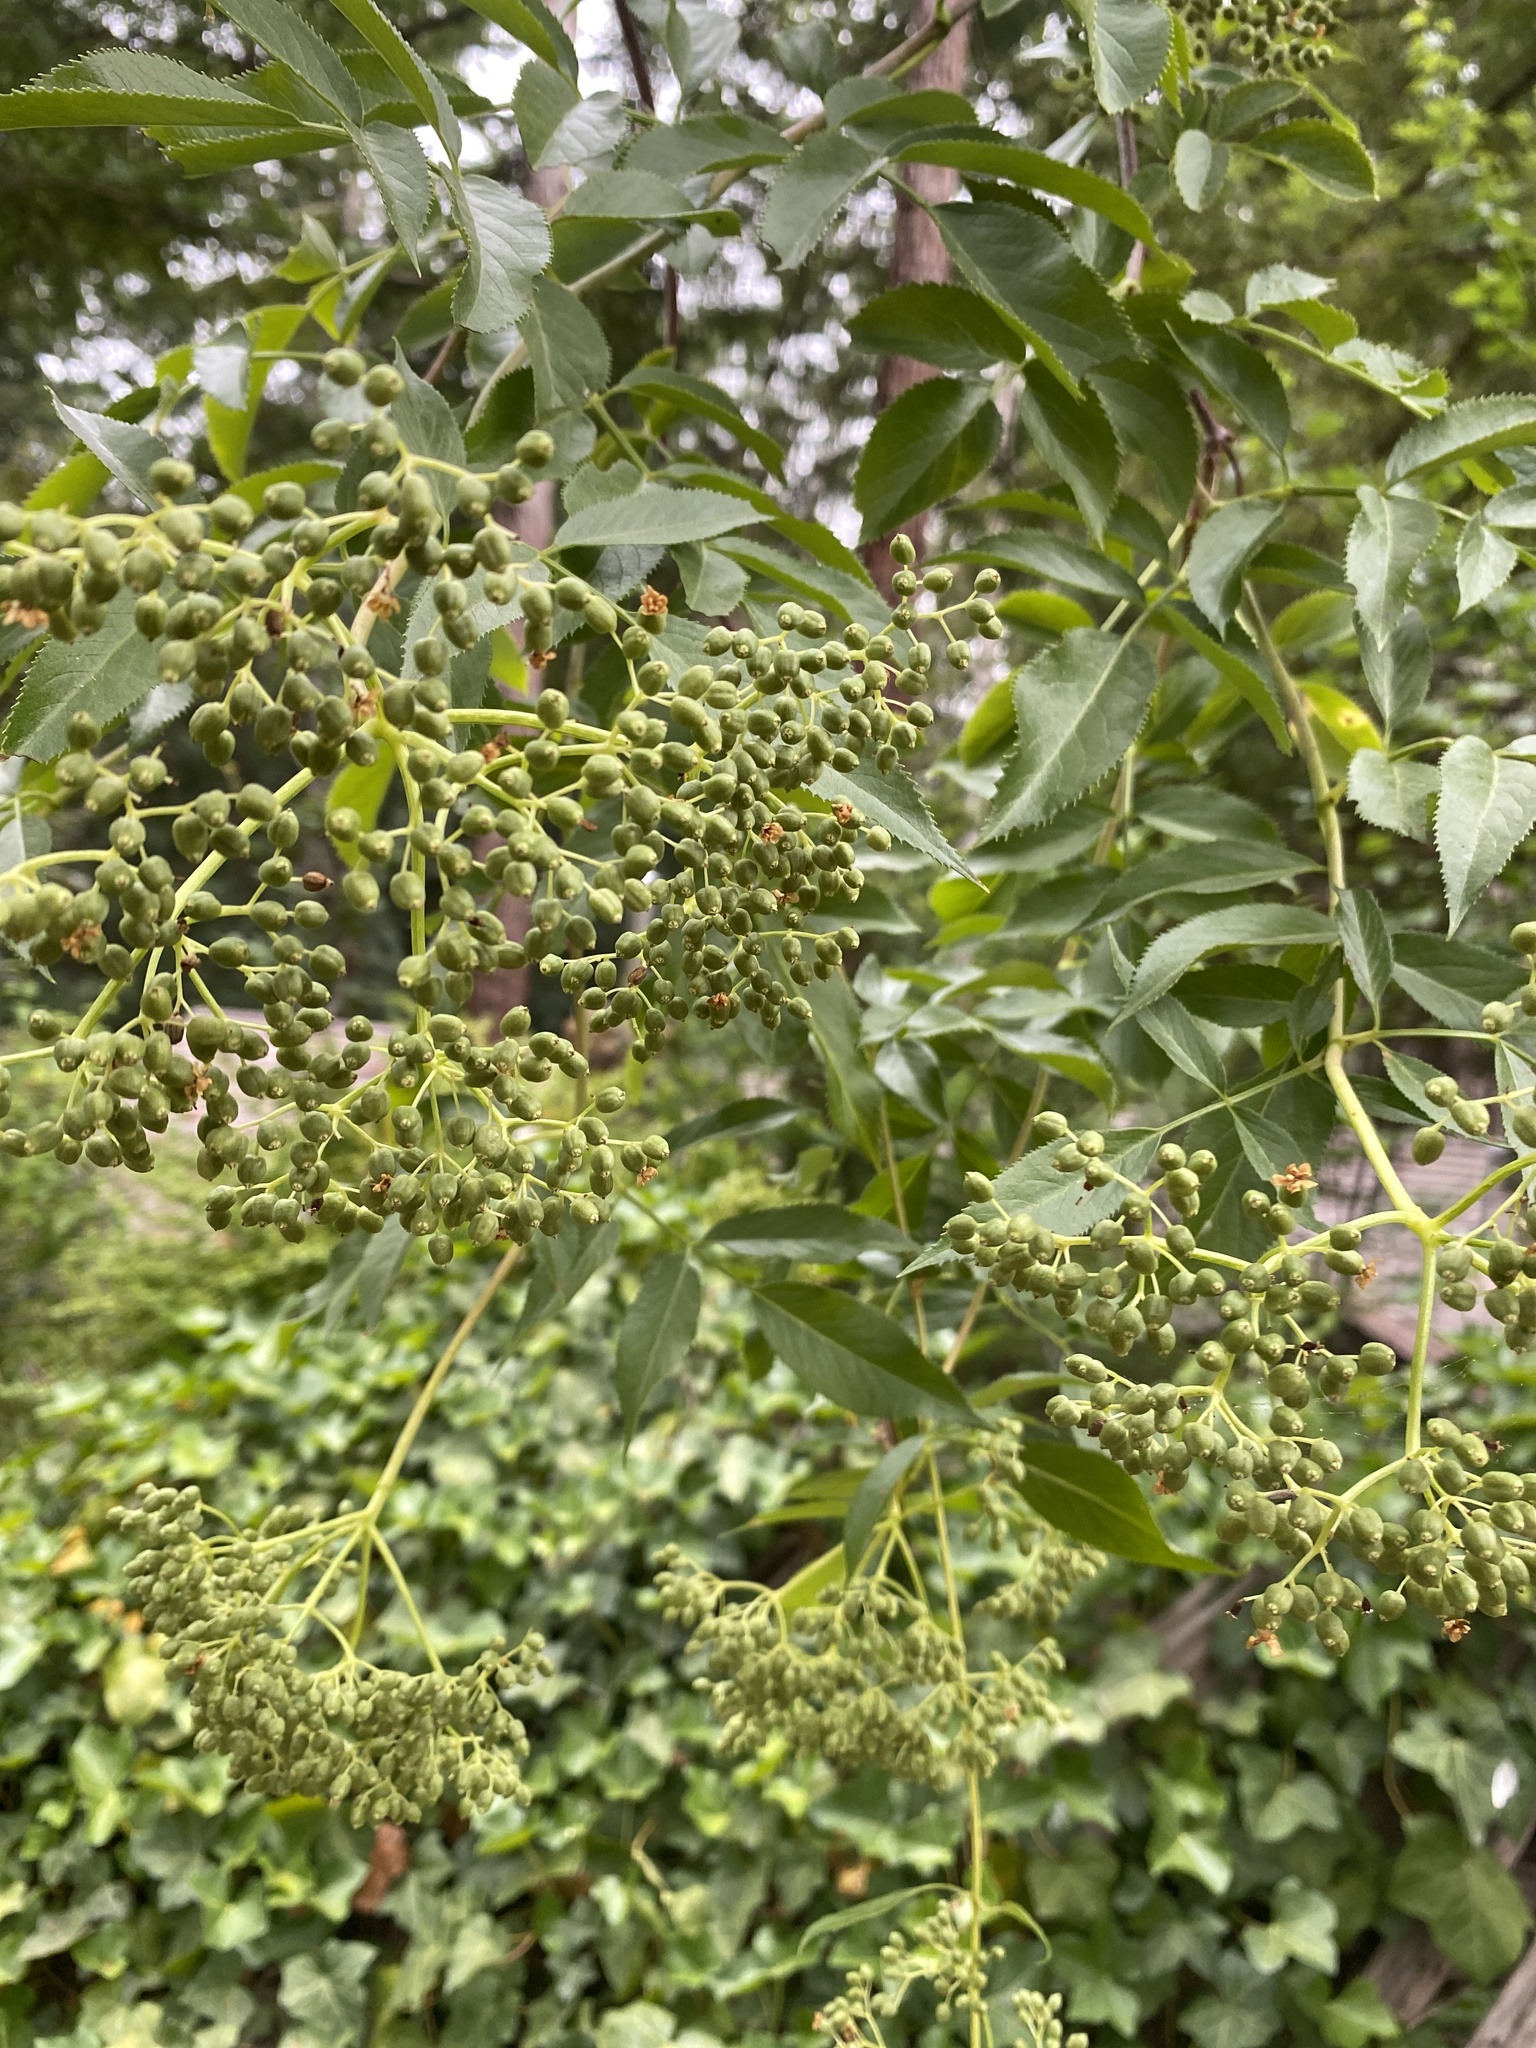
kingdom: Plantae
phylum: Tracheophyta
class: Magnoliopsida
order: Dipsacales
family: Viburnaceae
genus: Sambucus
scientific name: Sambucus cerulea
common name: Blue elder
